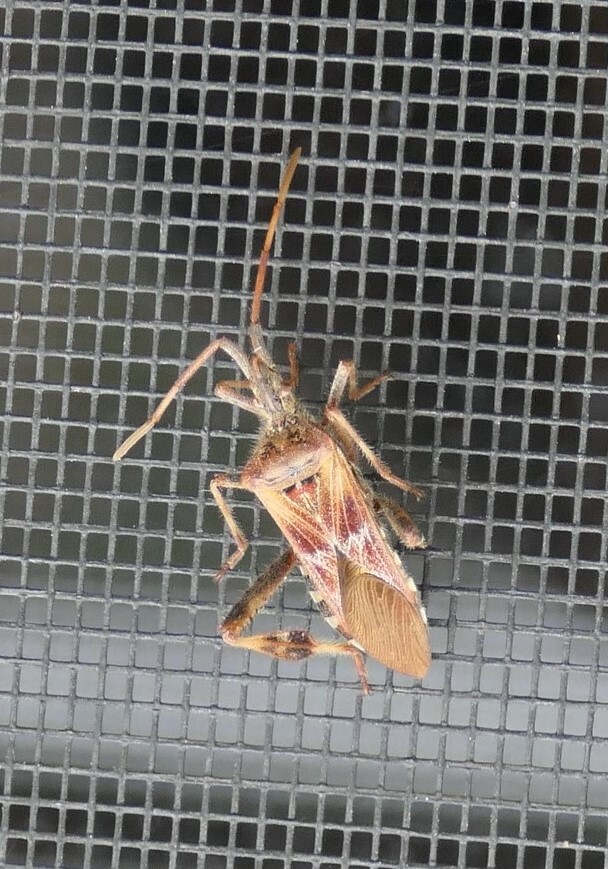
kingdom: Animalia
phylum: Arthropoda
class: Insecta
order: Hemiptera
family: Coreidae
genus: Leptoglossus
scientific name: Leptoglossus occidentalis
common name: Western conifer-seed bug
